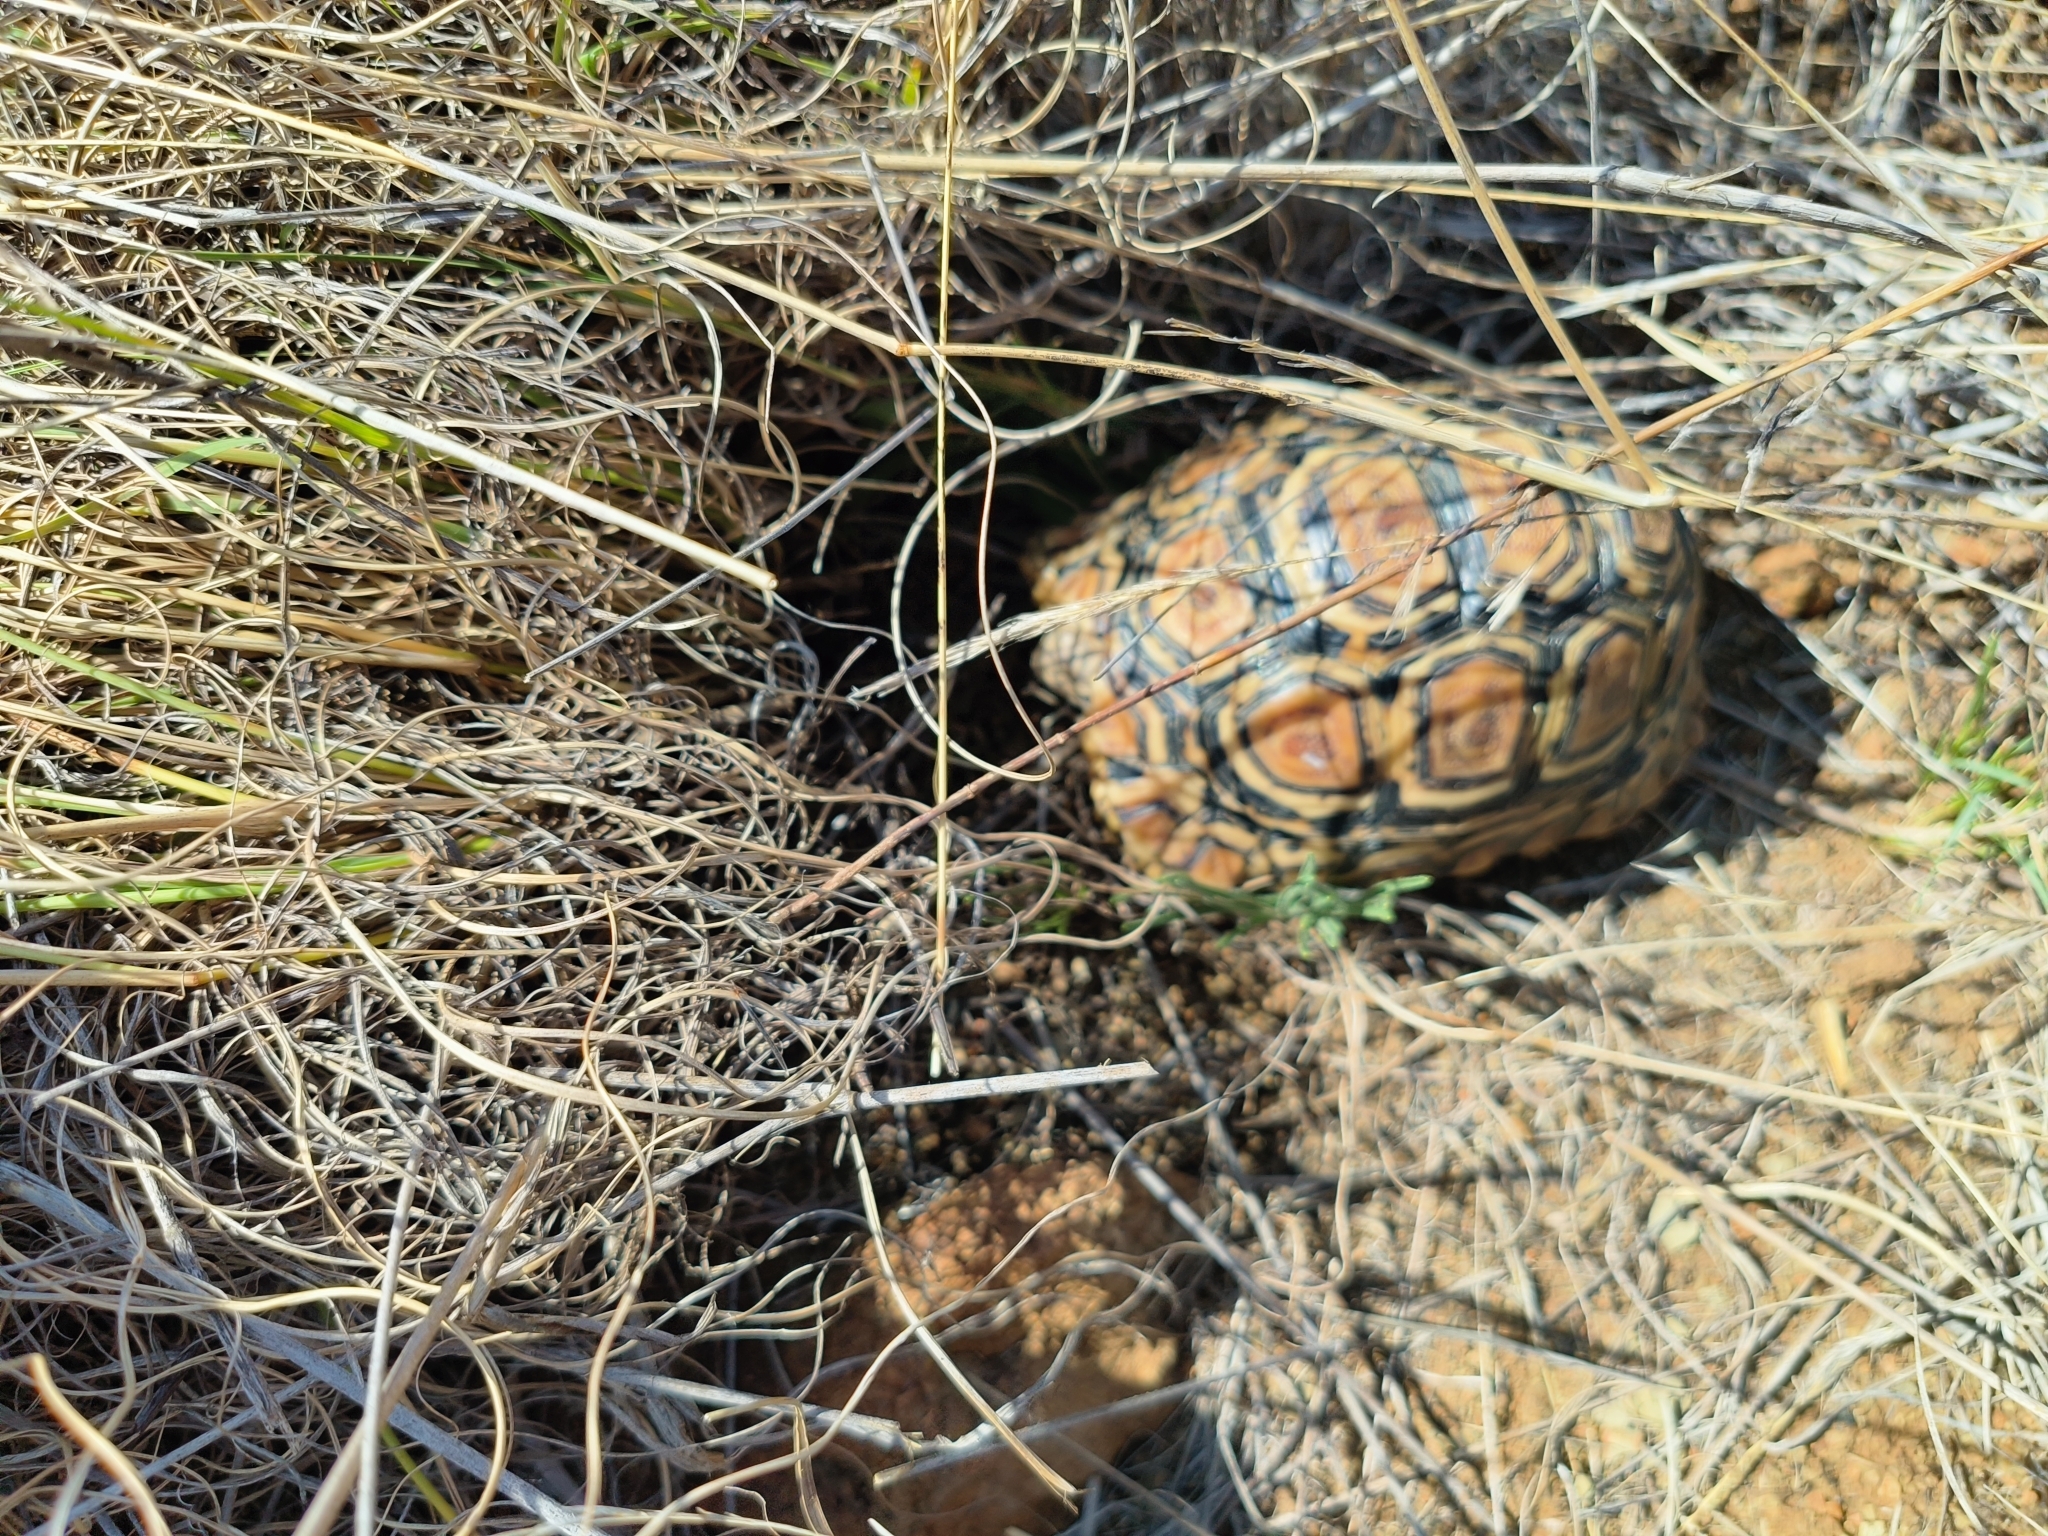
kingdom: Animalia
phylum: Chordata
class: Testudines
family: Testudinidae
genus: Stigmochelys
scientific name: Stigmochelys pardalis
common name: Leopard tortoise
